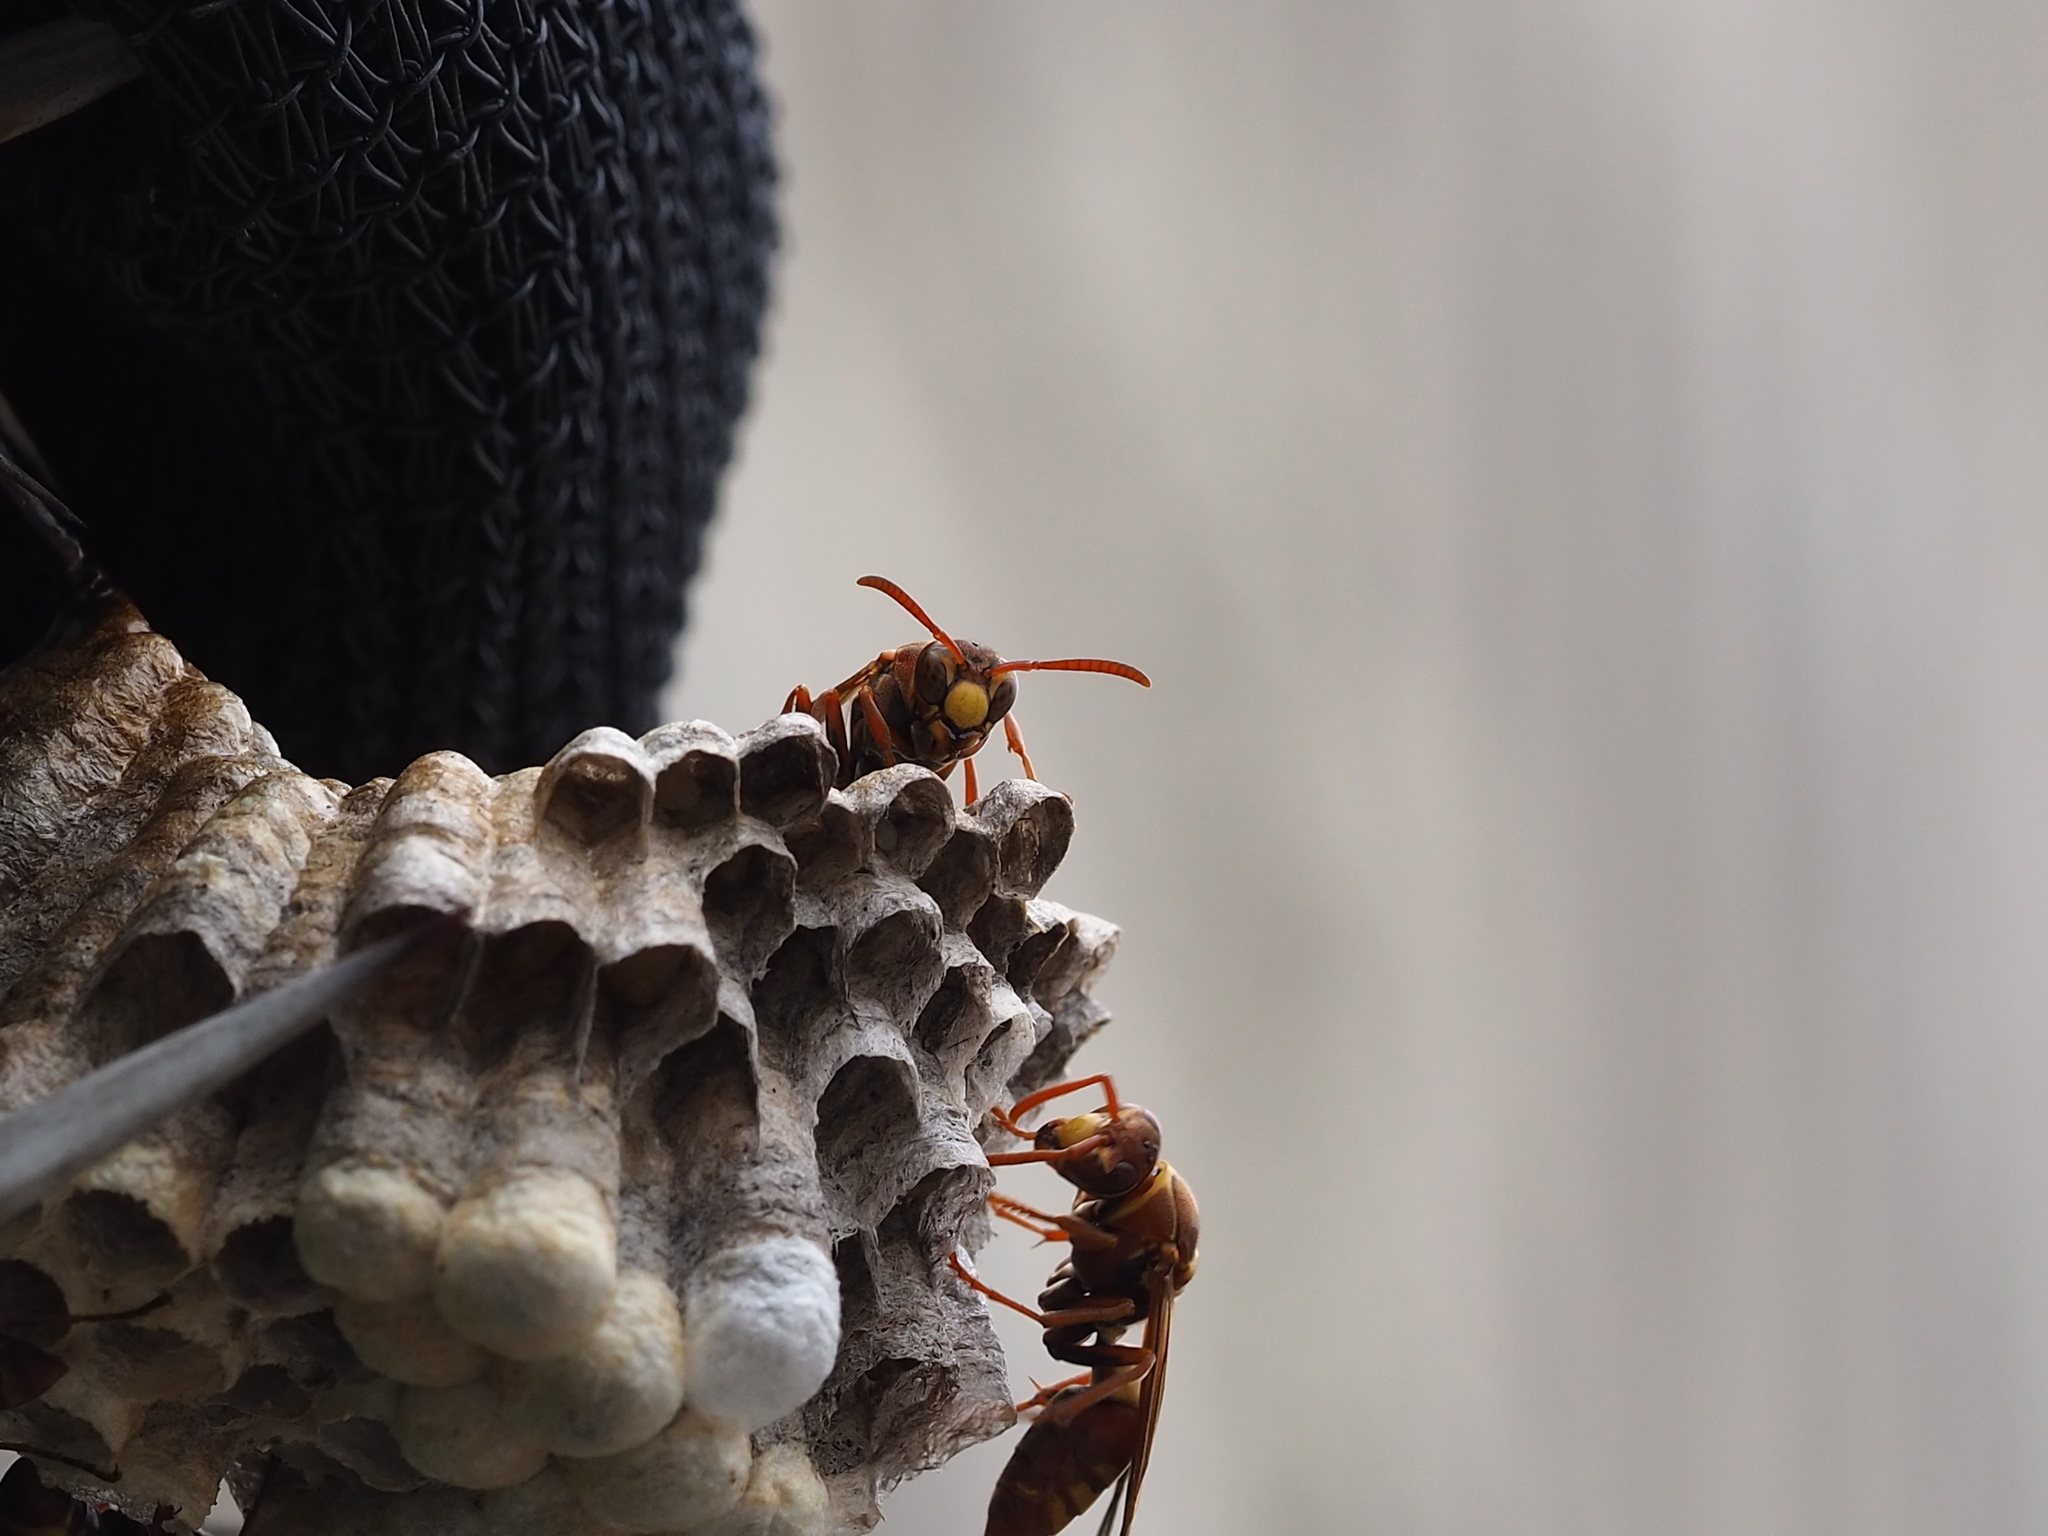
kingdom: Animalia
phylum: Arthropoda
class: Insecta
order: Hymenoptera
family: Eumenidae
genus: Polistes
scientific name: Polistes shirakii
